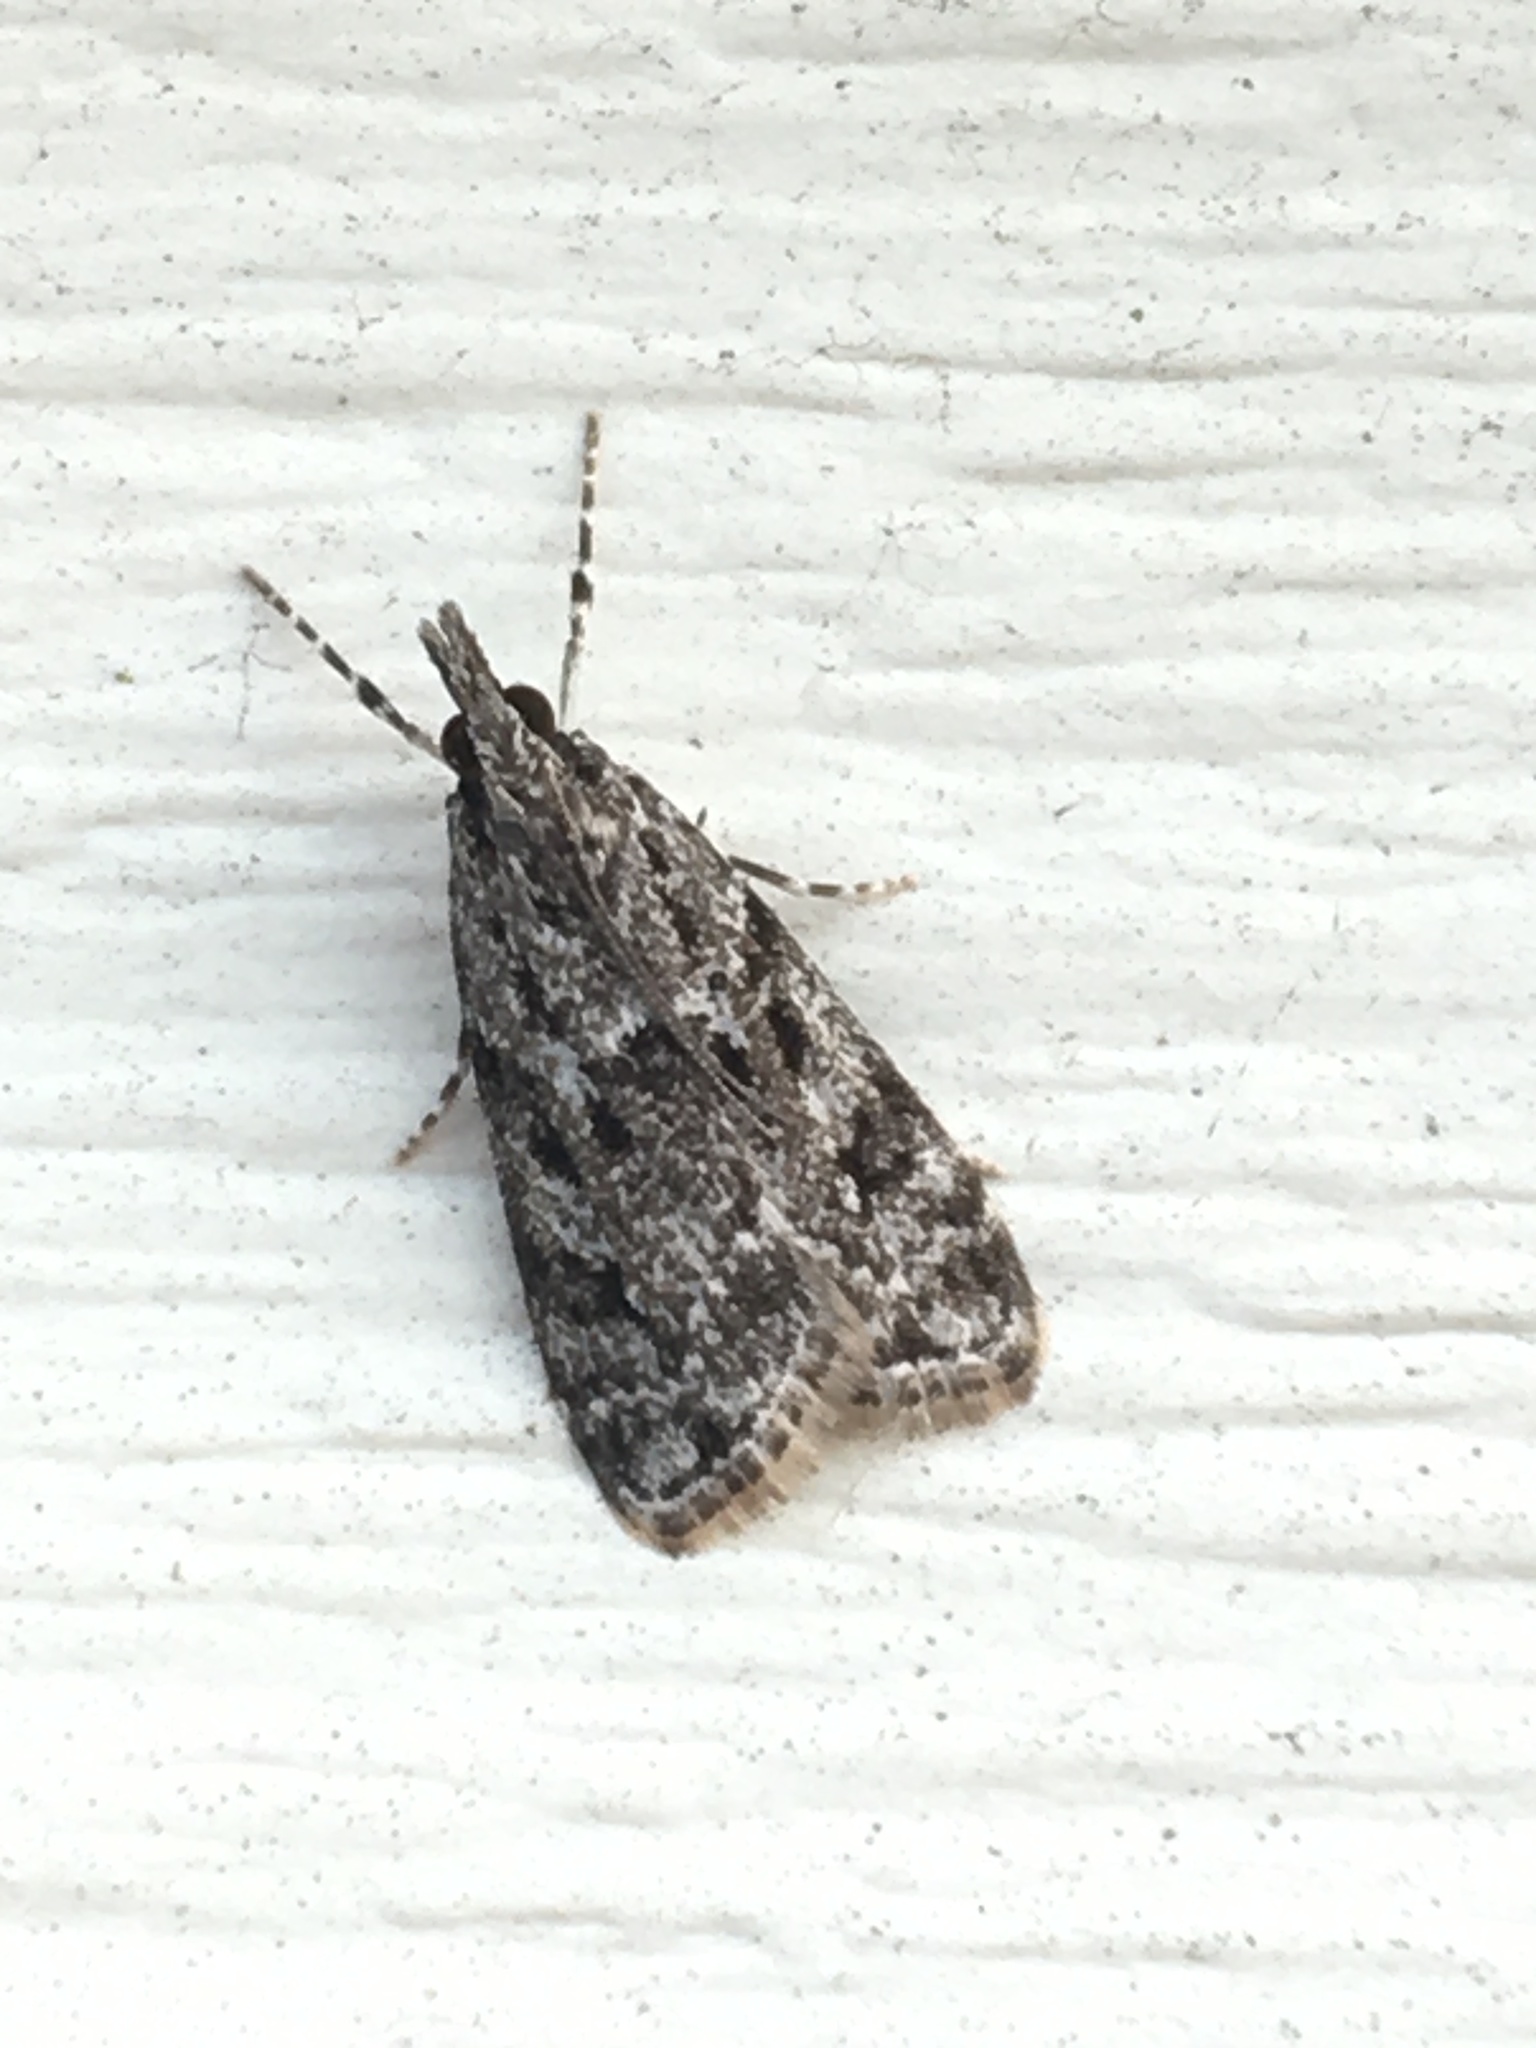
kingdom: Animalia
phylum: Arthropoda
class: Insecta
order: Lepidoptera
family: Crambidae
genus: Eudonia
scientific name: Eudonia heterosalis
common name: Mcdunnough's eudonia
